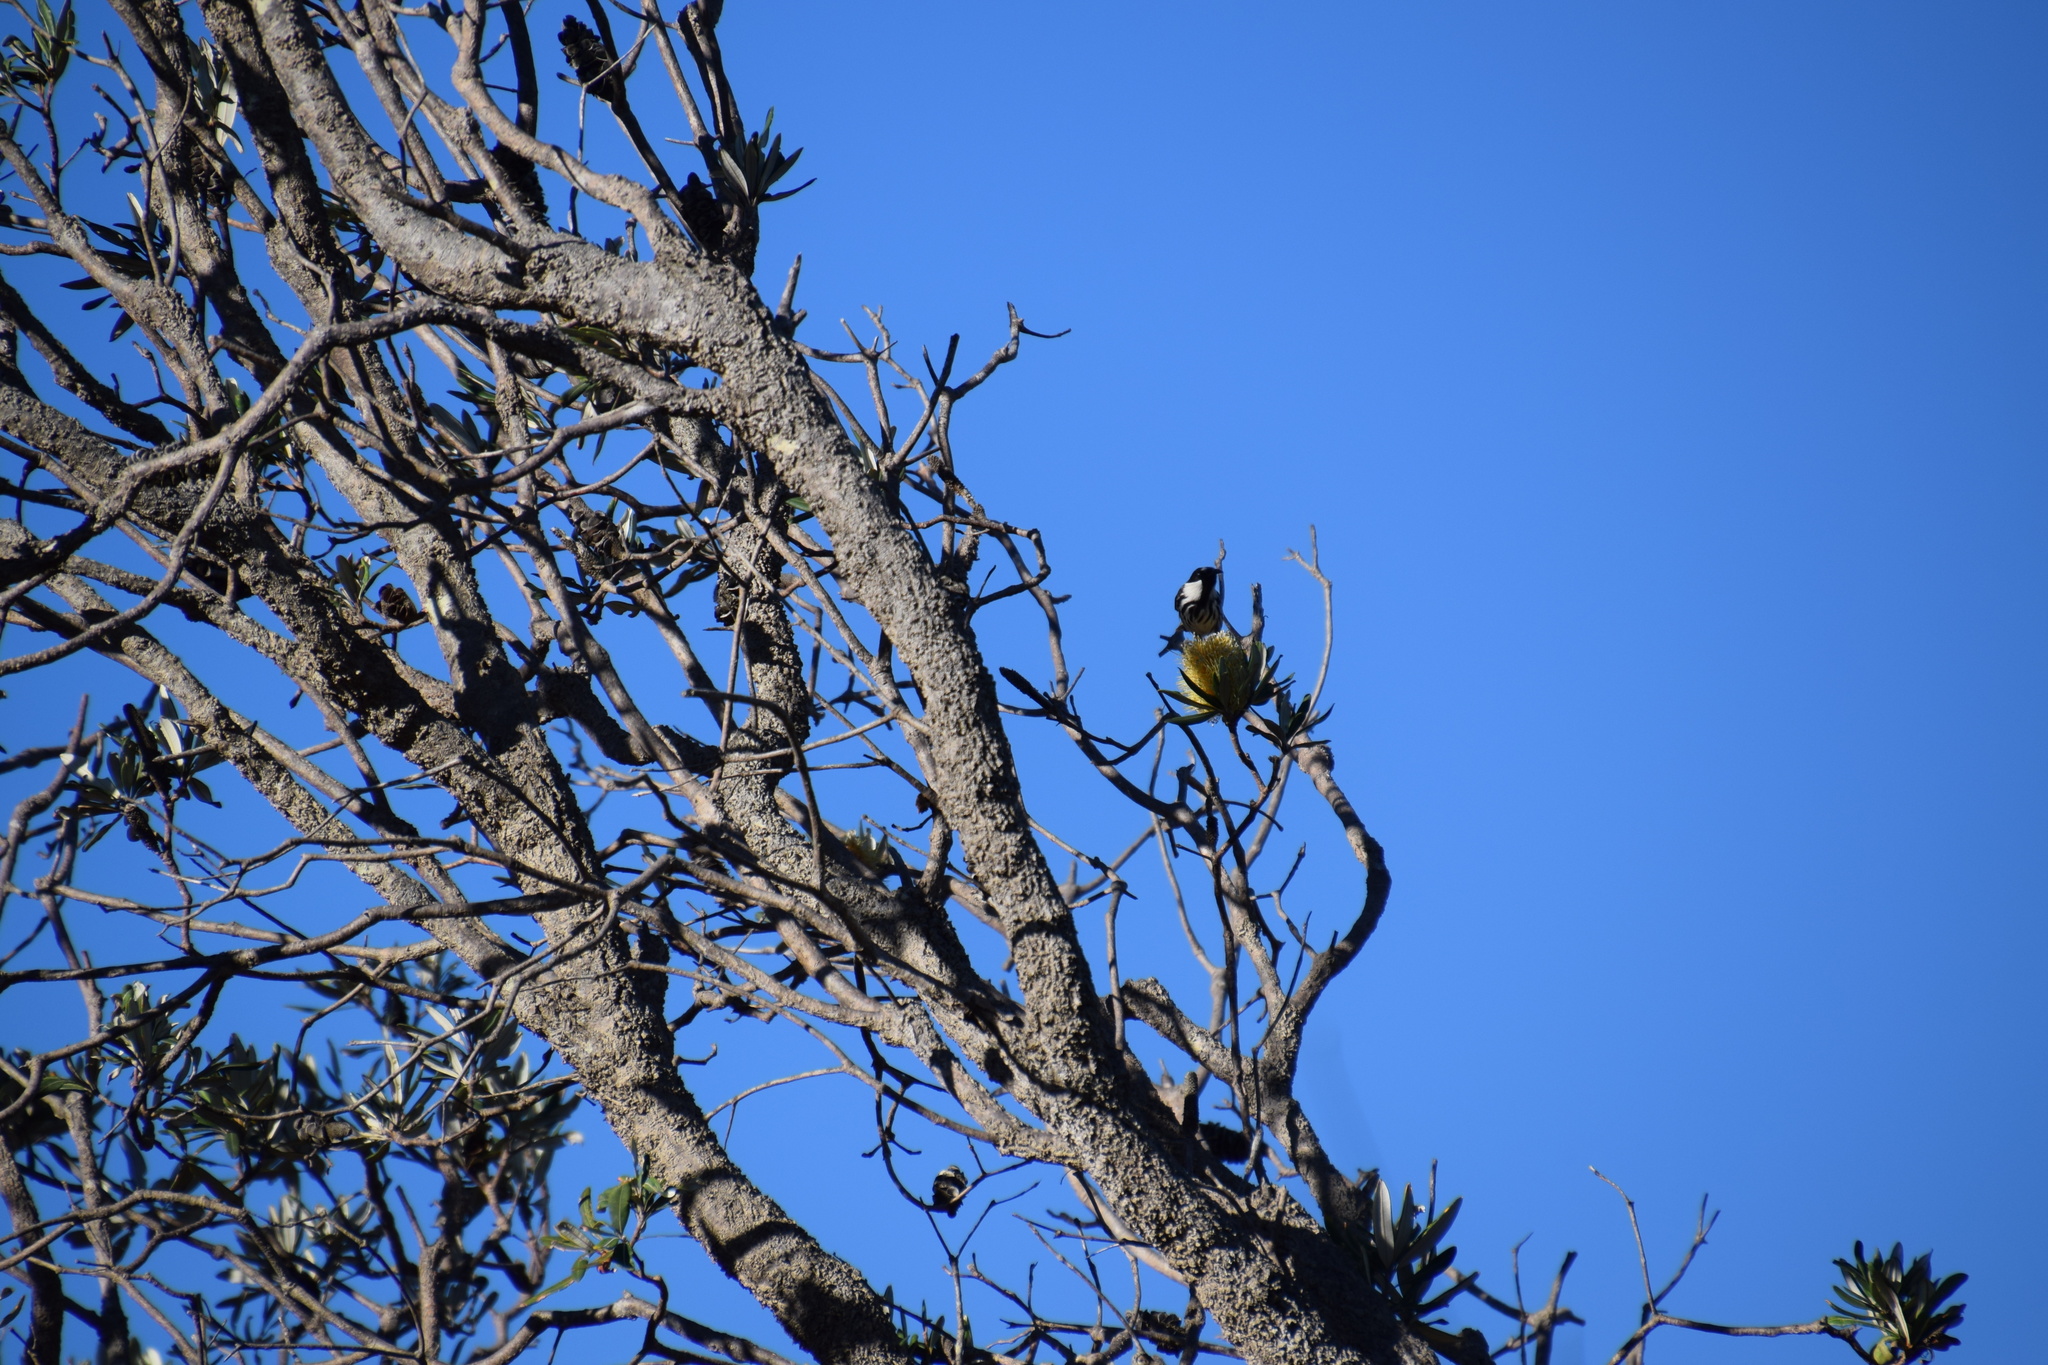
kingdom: Animalia
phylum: Chordata
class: Aves
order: Passeriformes
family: Meliphagidae
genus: Phylidonyris
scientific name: Phylidonyris niger
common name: White-cheeked honeyeater
